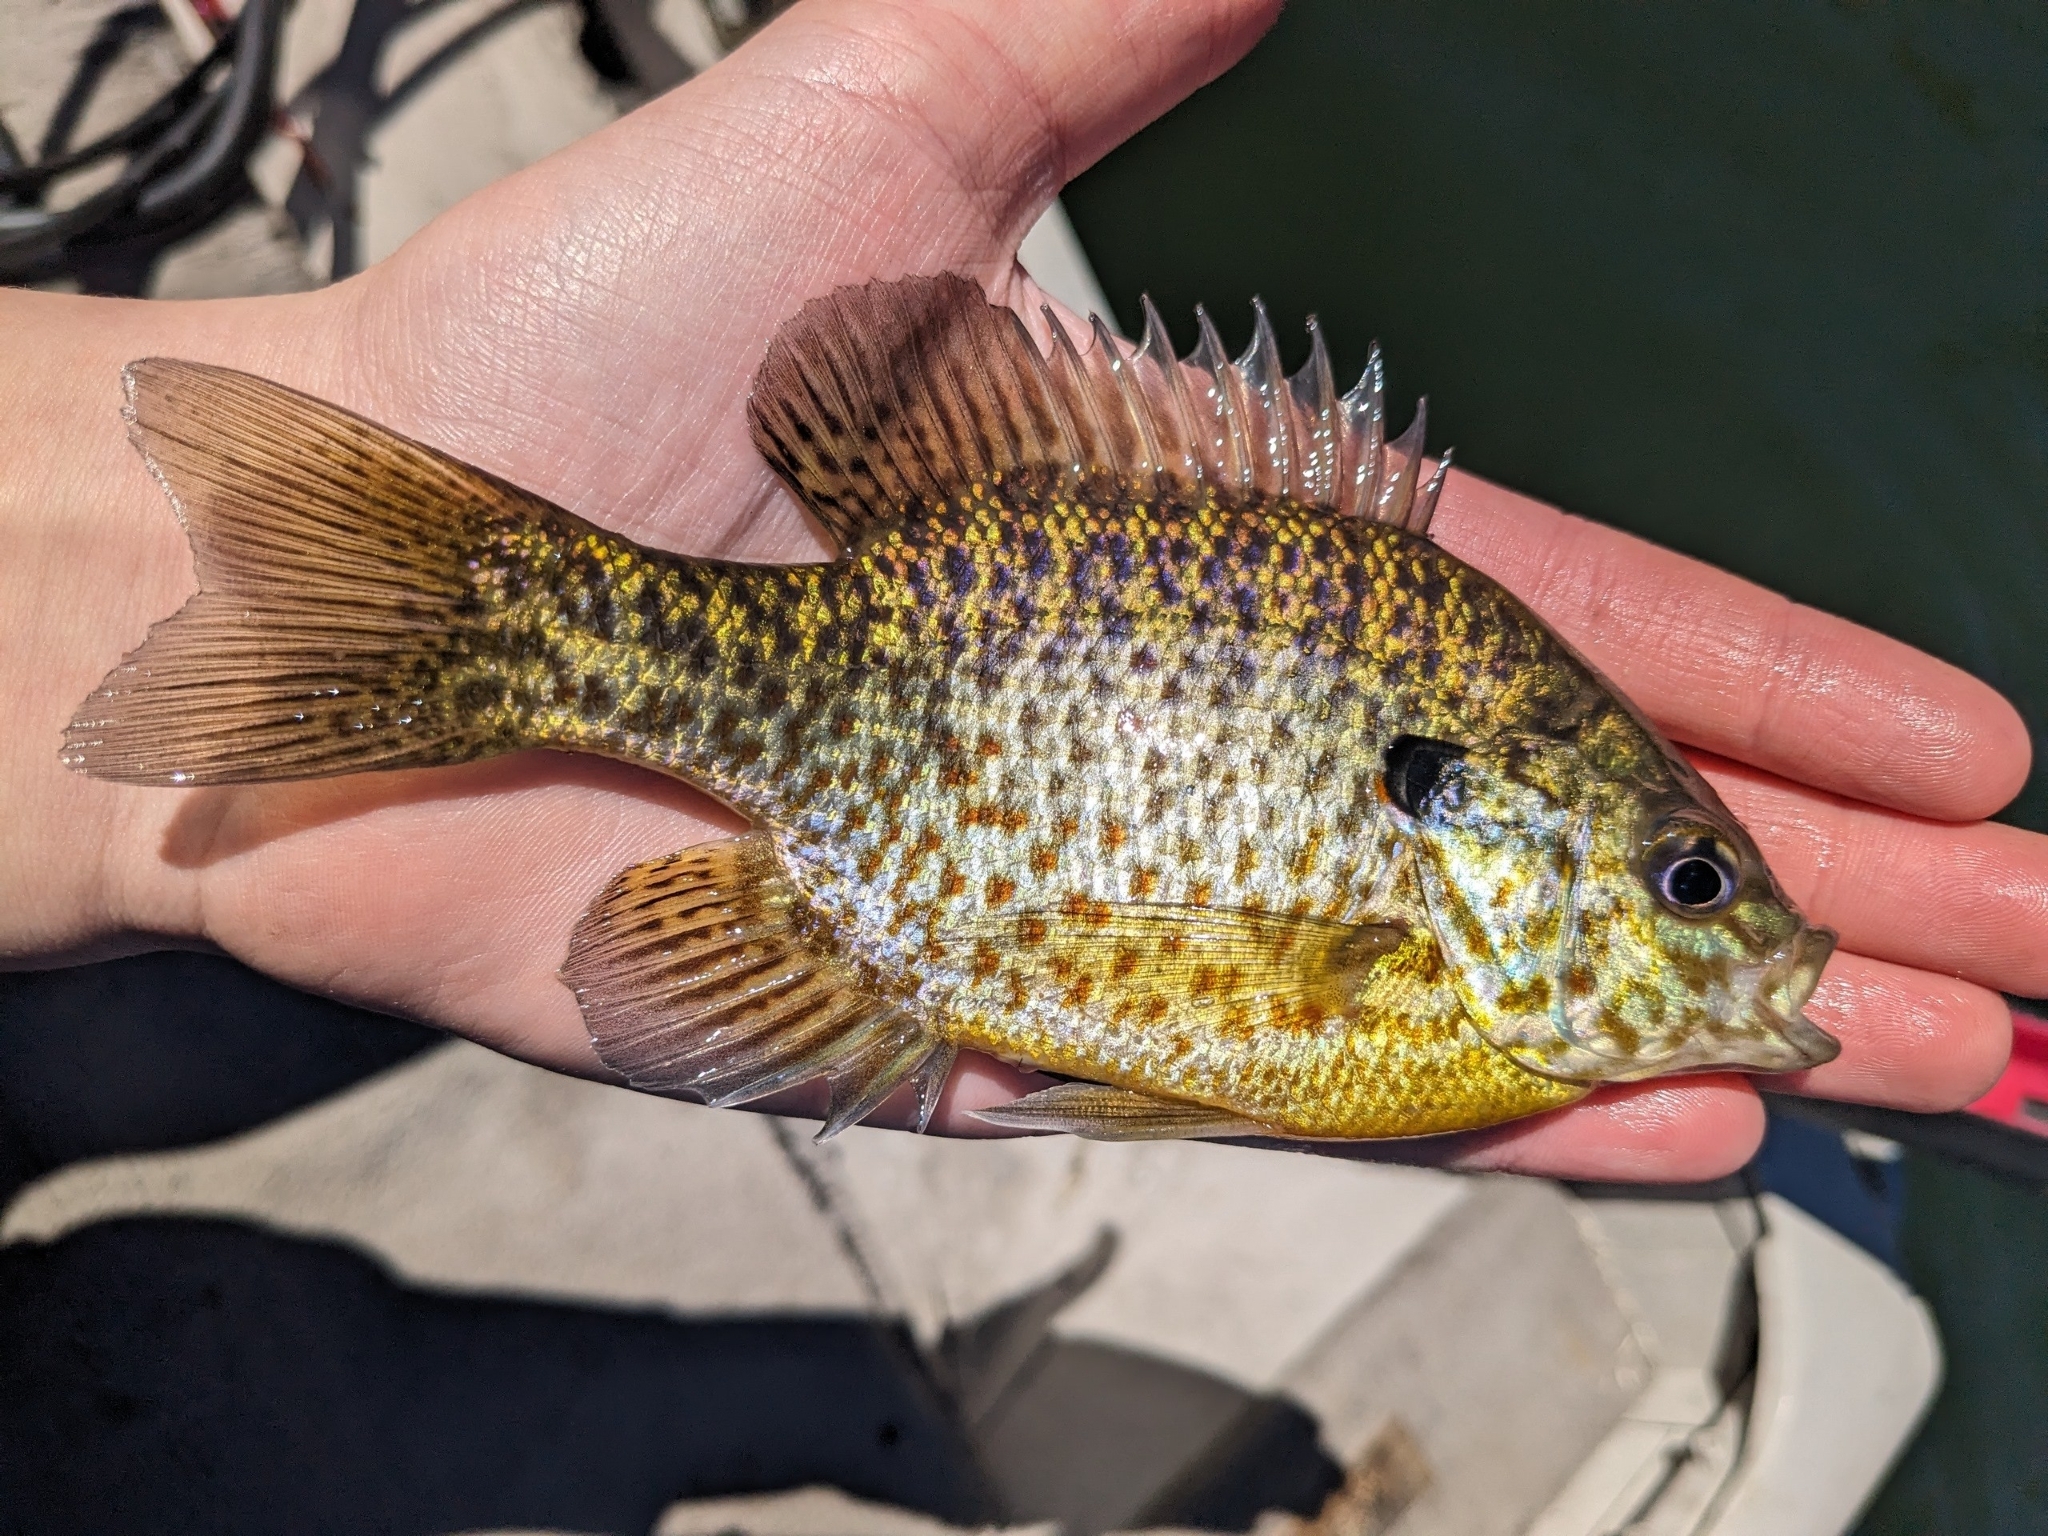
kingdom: Animalia
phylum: Chordata
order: Perciformes
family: Centrarchidae
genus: Lepomis
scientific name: Lepomis
